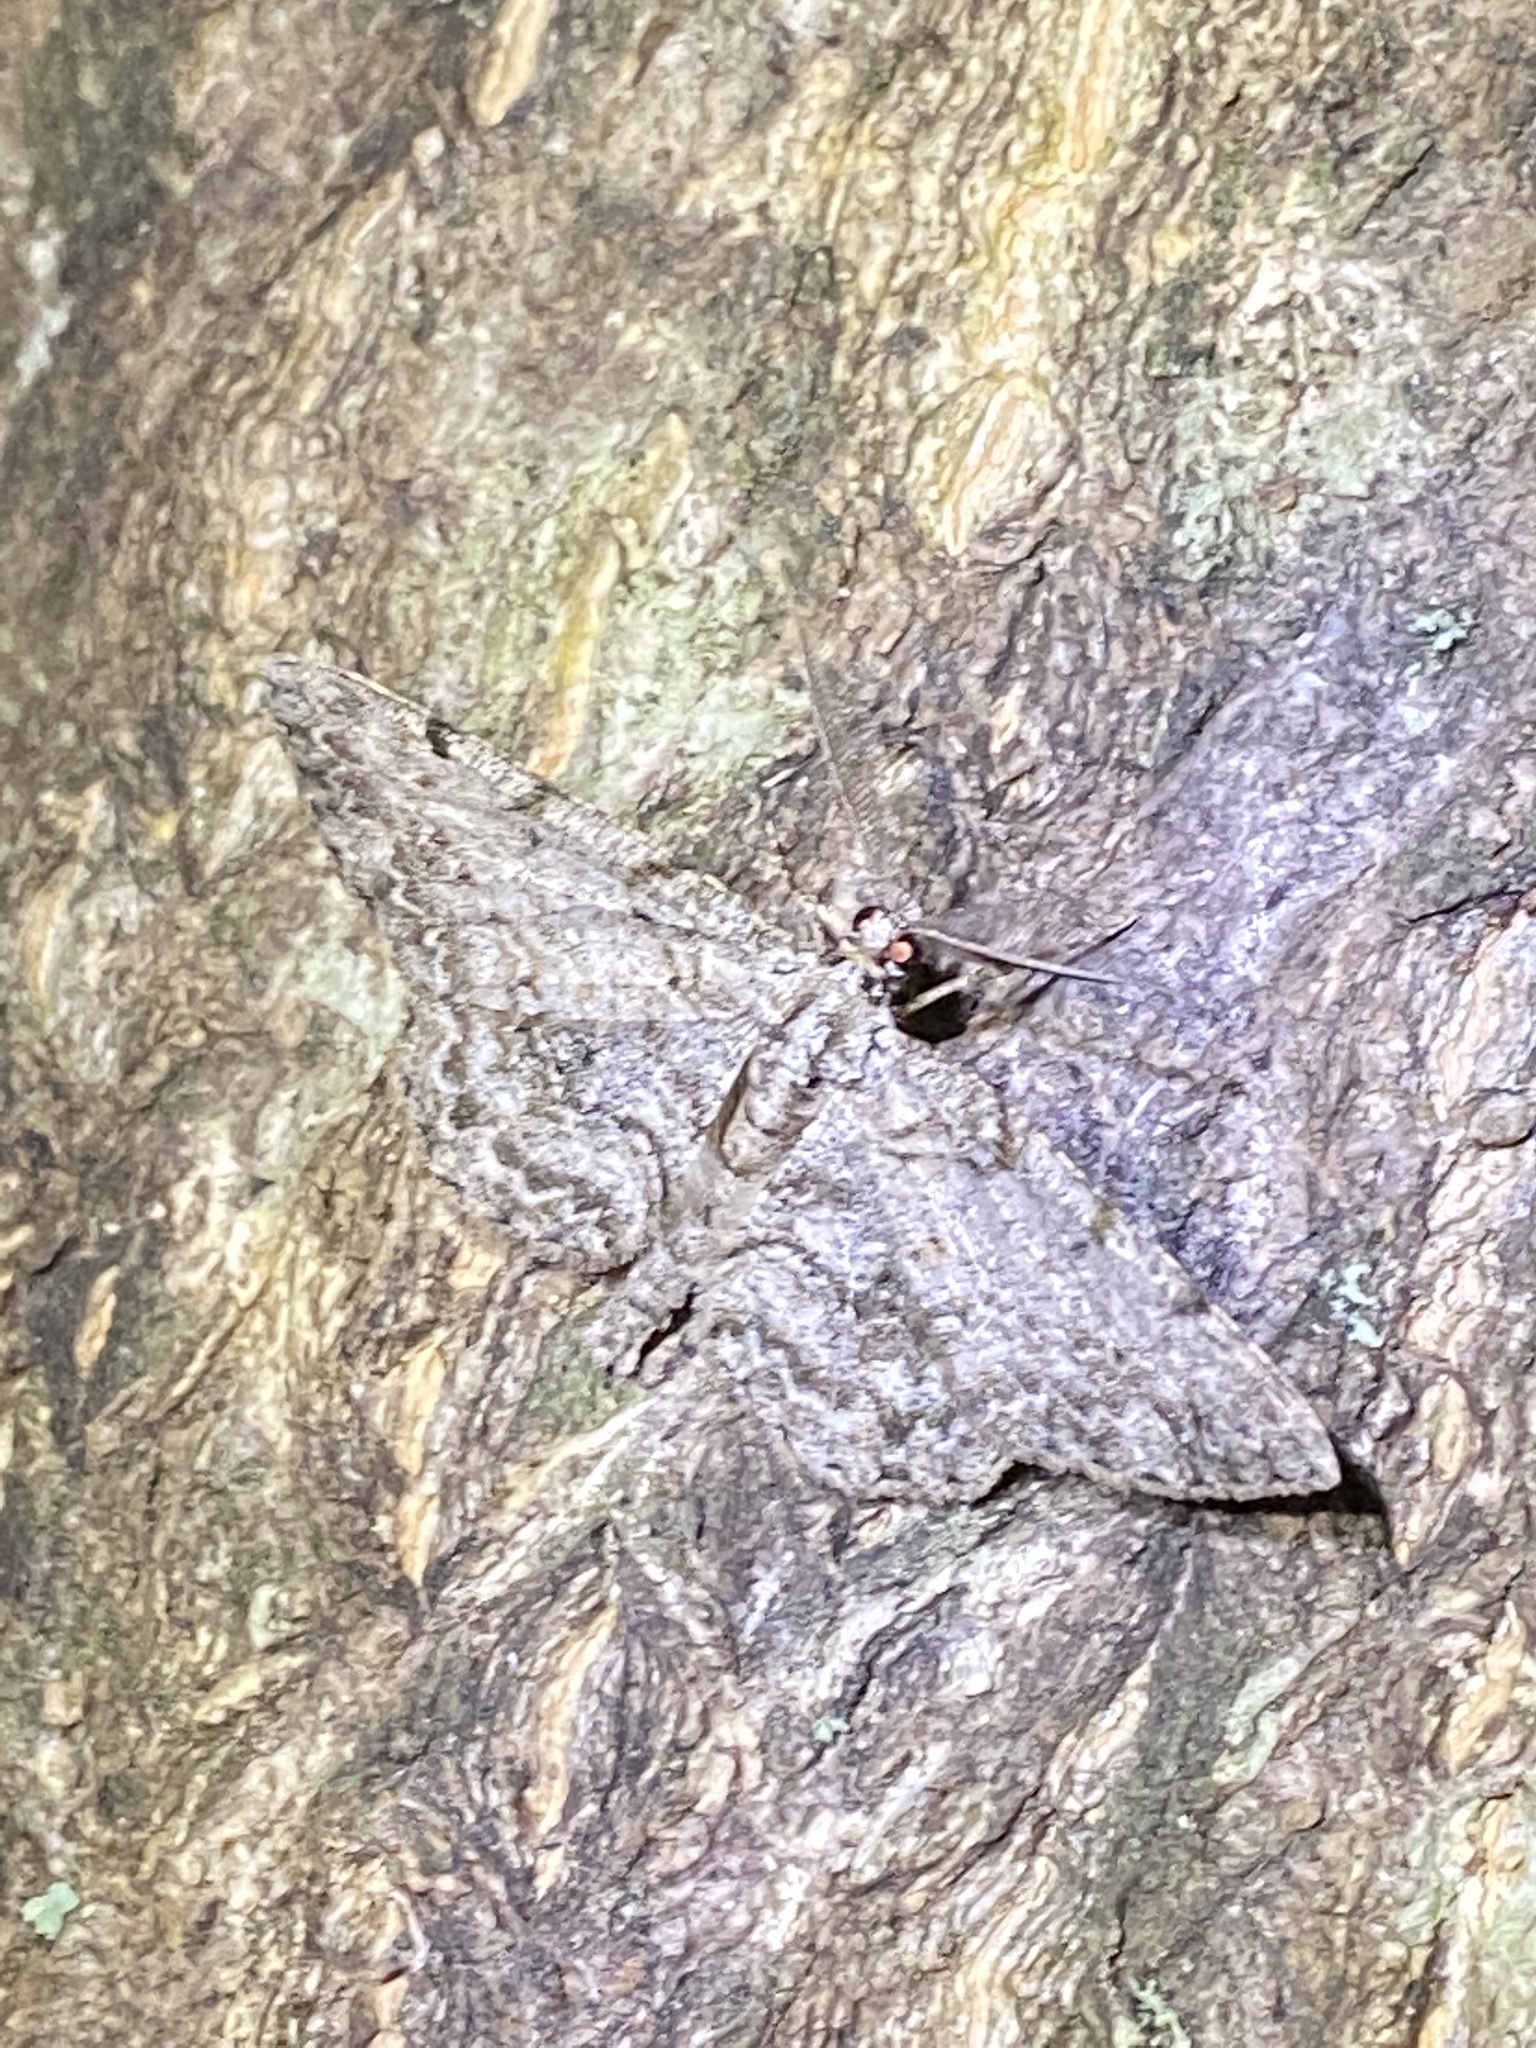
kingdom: Animalia
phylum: Arthropoda
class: Insecta
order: Lepidoptera
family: Geometridae
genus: Protoboarmia
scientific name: Protoboarmia porcelaria
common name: Porcelain gray
